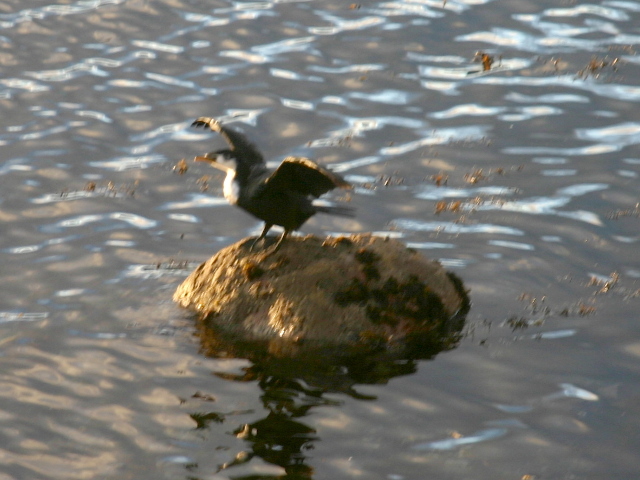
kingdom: Animalia
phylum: Chordata
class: Aves
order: Suliformes
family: Phalacrocoracidae
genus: Microcarbo
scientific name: Microcarbo melanoleucos
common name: Little pied cormorant
